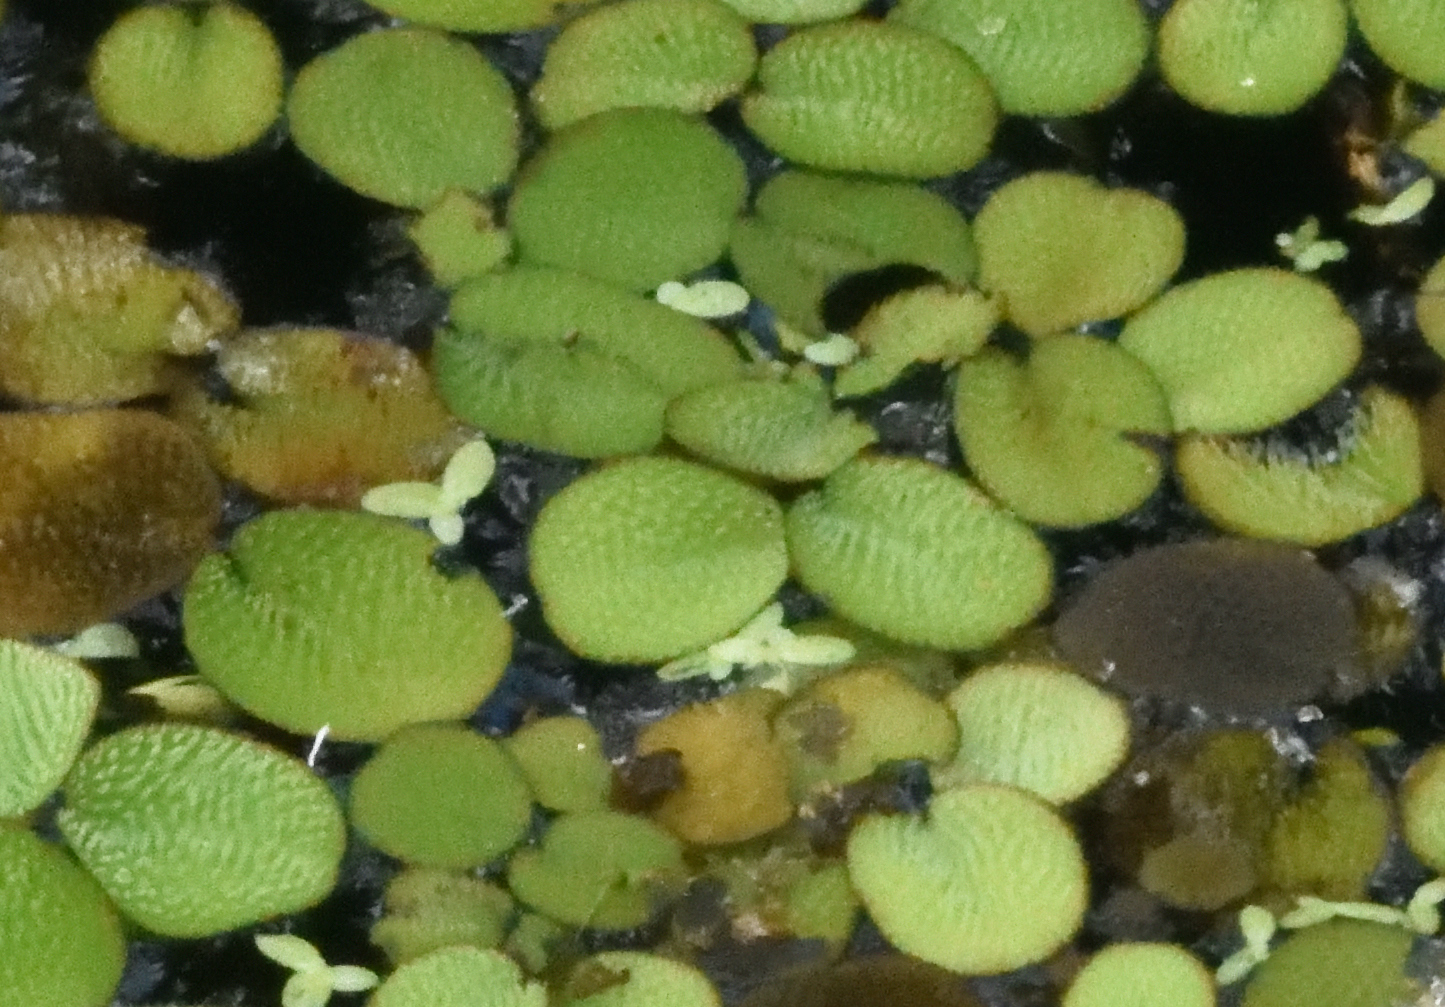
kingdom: Plantae
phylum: Tracheophyta
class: Polypodiopsida
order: Salviniales
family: Salviniaceae
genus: Salvinia
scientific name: Salvinia minima
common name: Water spangles
